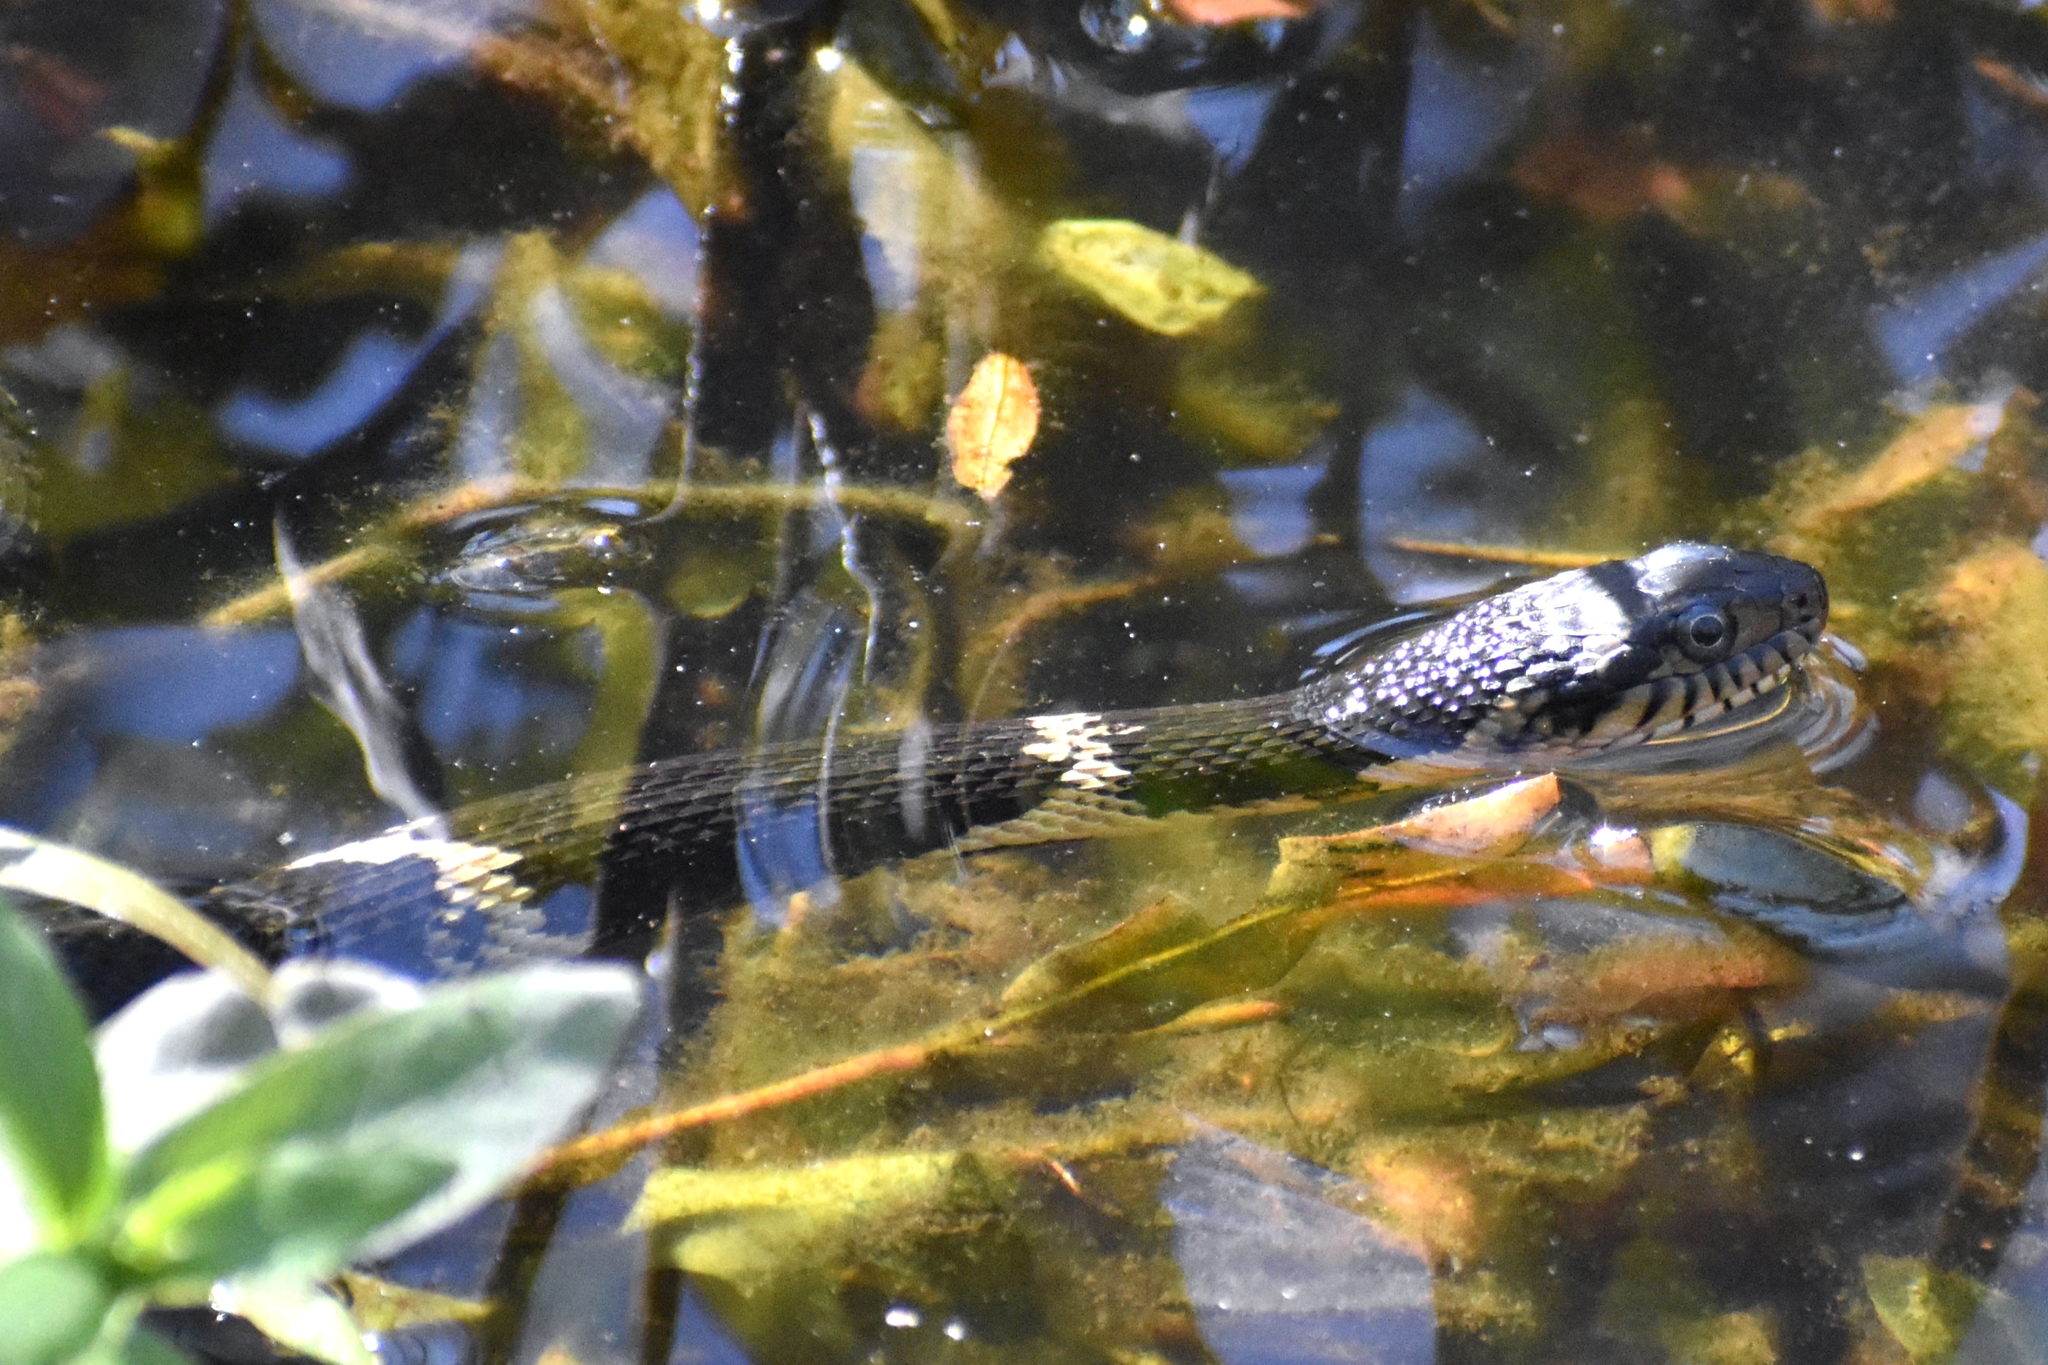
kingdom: Animalia
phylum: Chordata
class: Squamata
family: Colubridae
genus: Nerodia
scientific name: Nerodia fasciata
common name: Southern water snake
